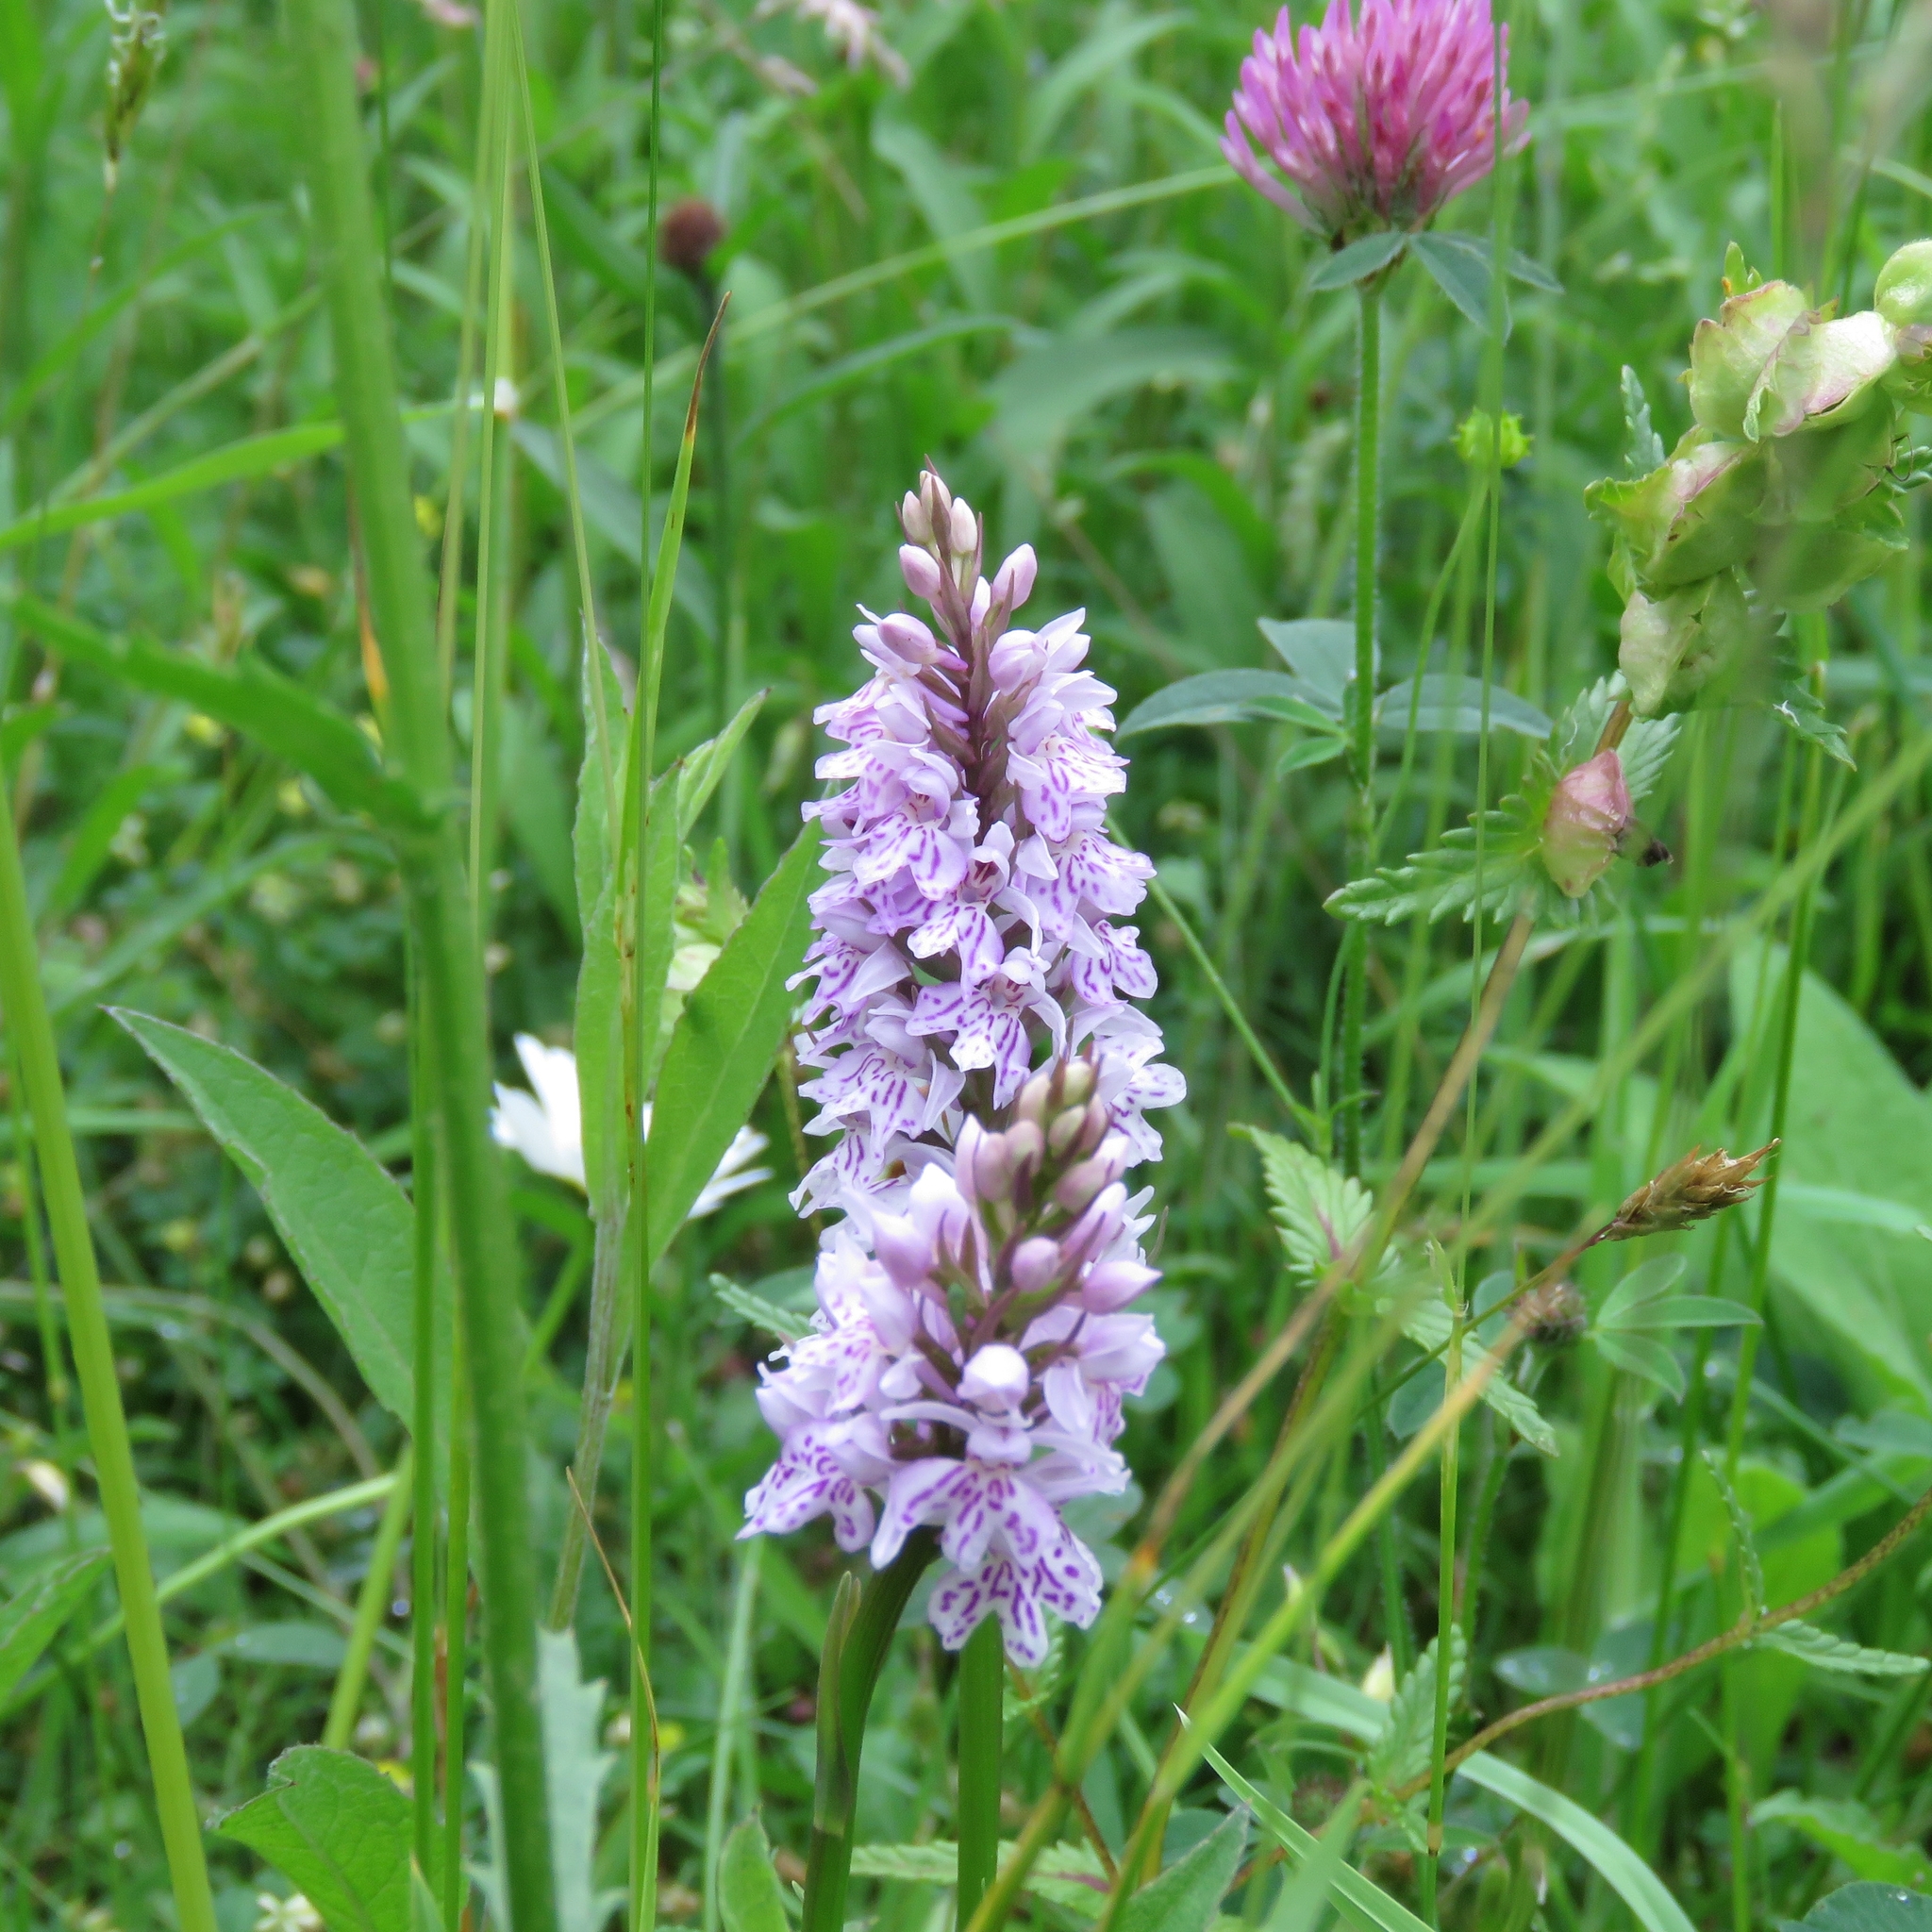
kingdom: Plantae
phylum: Tracheophyta
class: Liliopsida
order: Asparagales
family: Orchidaceae
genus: Dactylorhiza
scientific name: Dactylorhiza maculata
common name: Heath spotted-orchid
